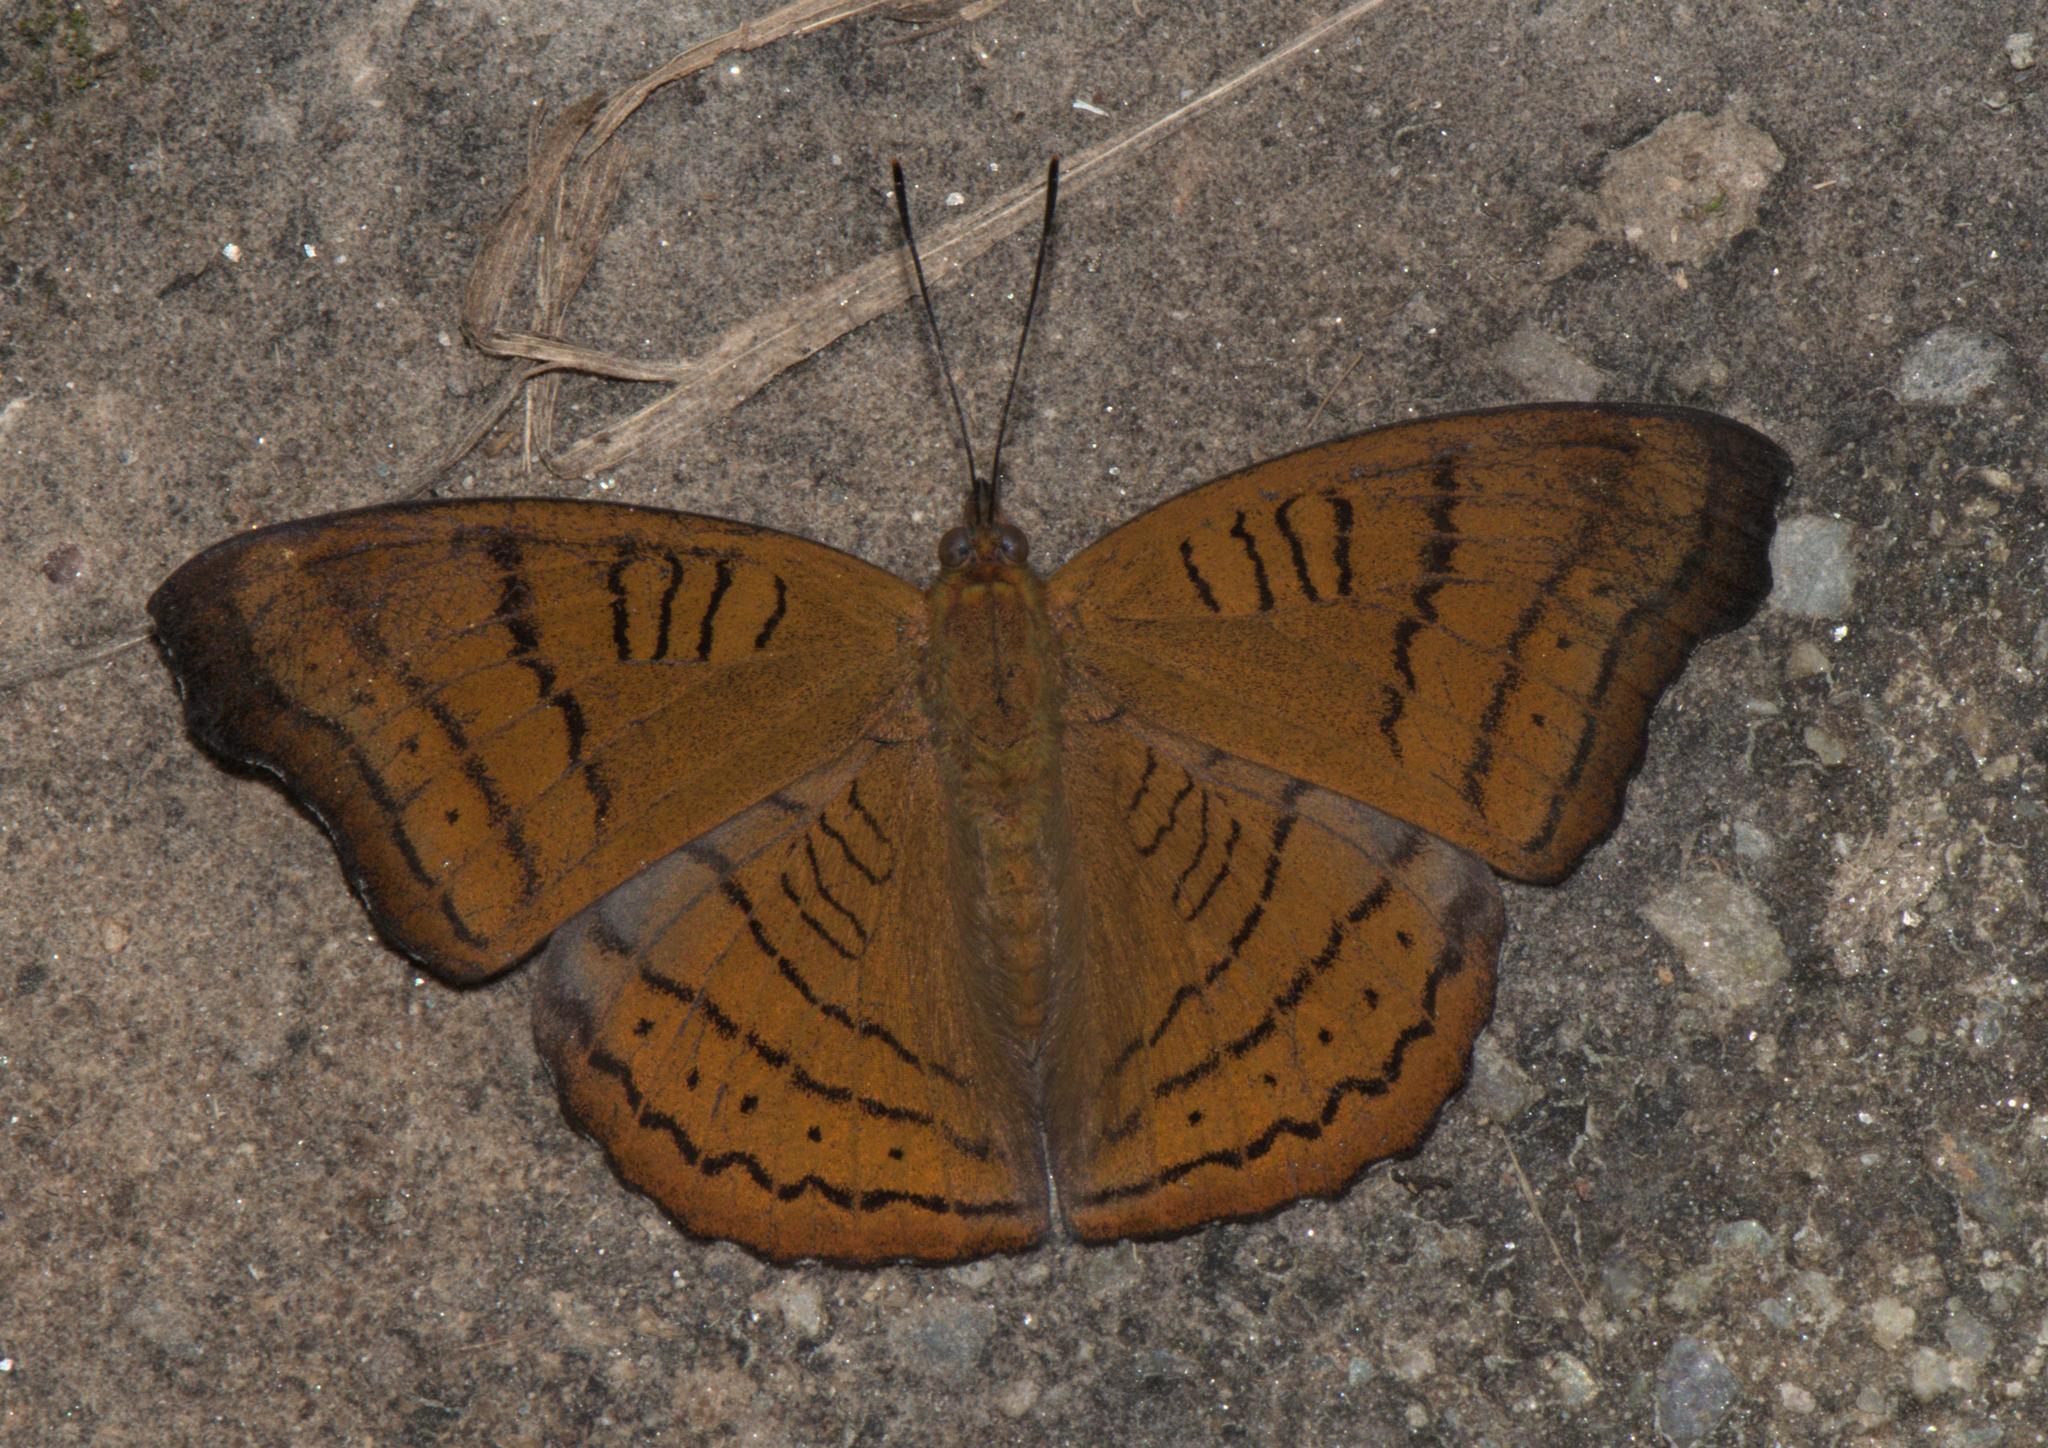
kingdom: Animalia
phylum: Arthropoda
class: Insecta
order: Lepidoptera
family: Nymphalidae
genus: Pseudergolis
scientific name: Pseudergolis wedah
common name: Tabby
